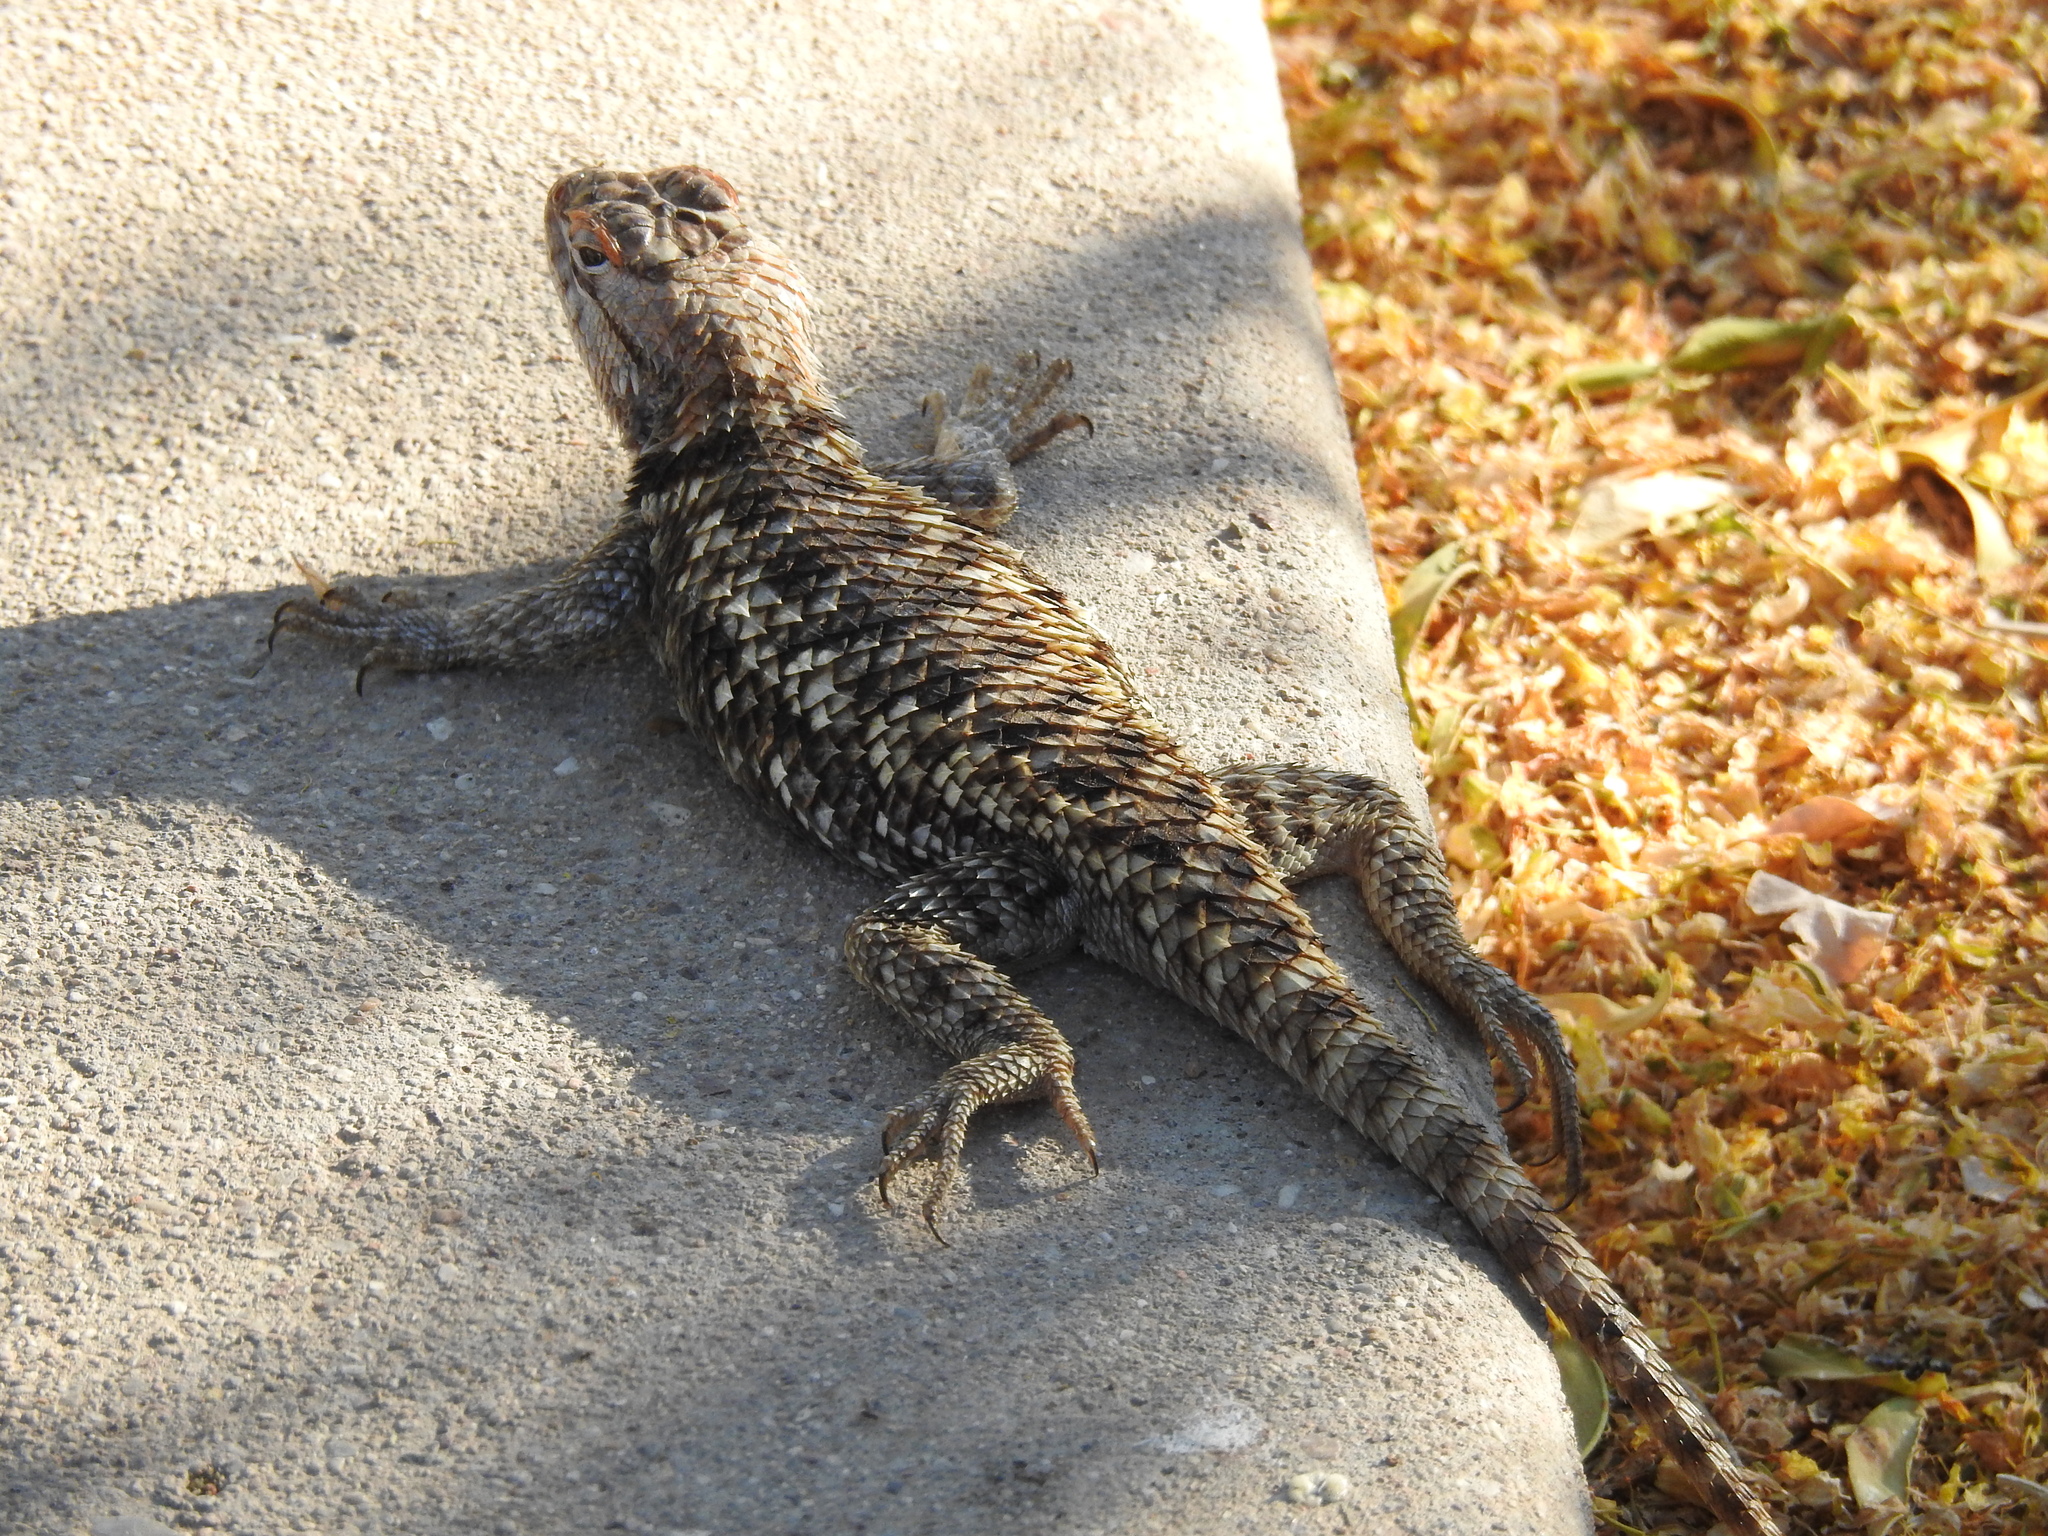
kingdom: Animalia
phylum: Chordata
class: Squamata
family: Phrynosomatidae
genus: Sceloporus
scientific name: Sceloporus magister
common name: Desert spiny lizard
